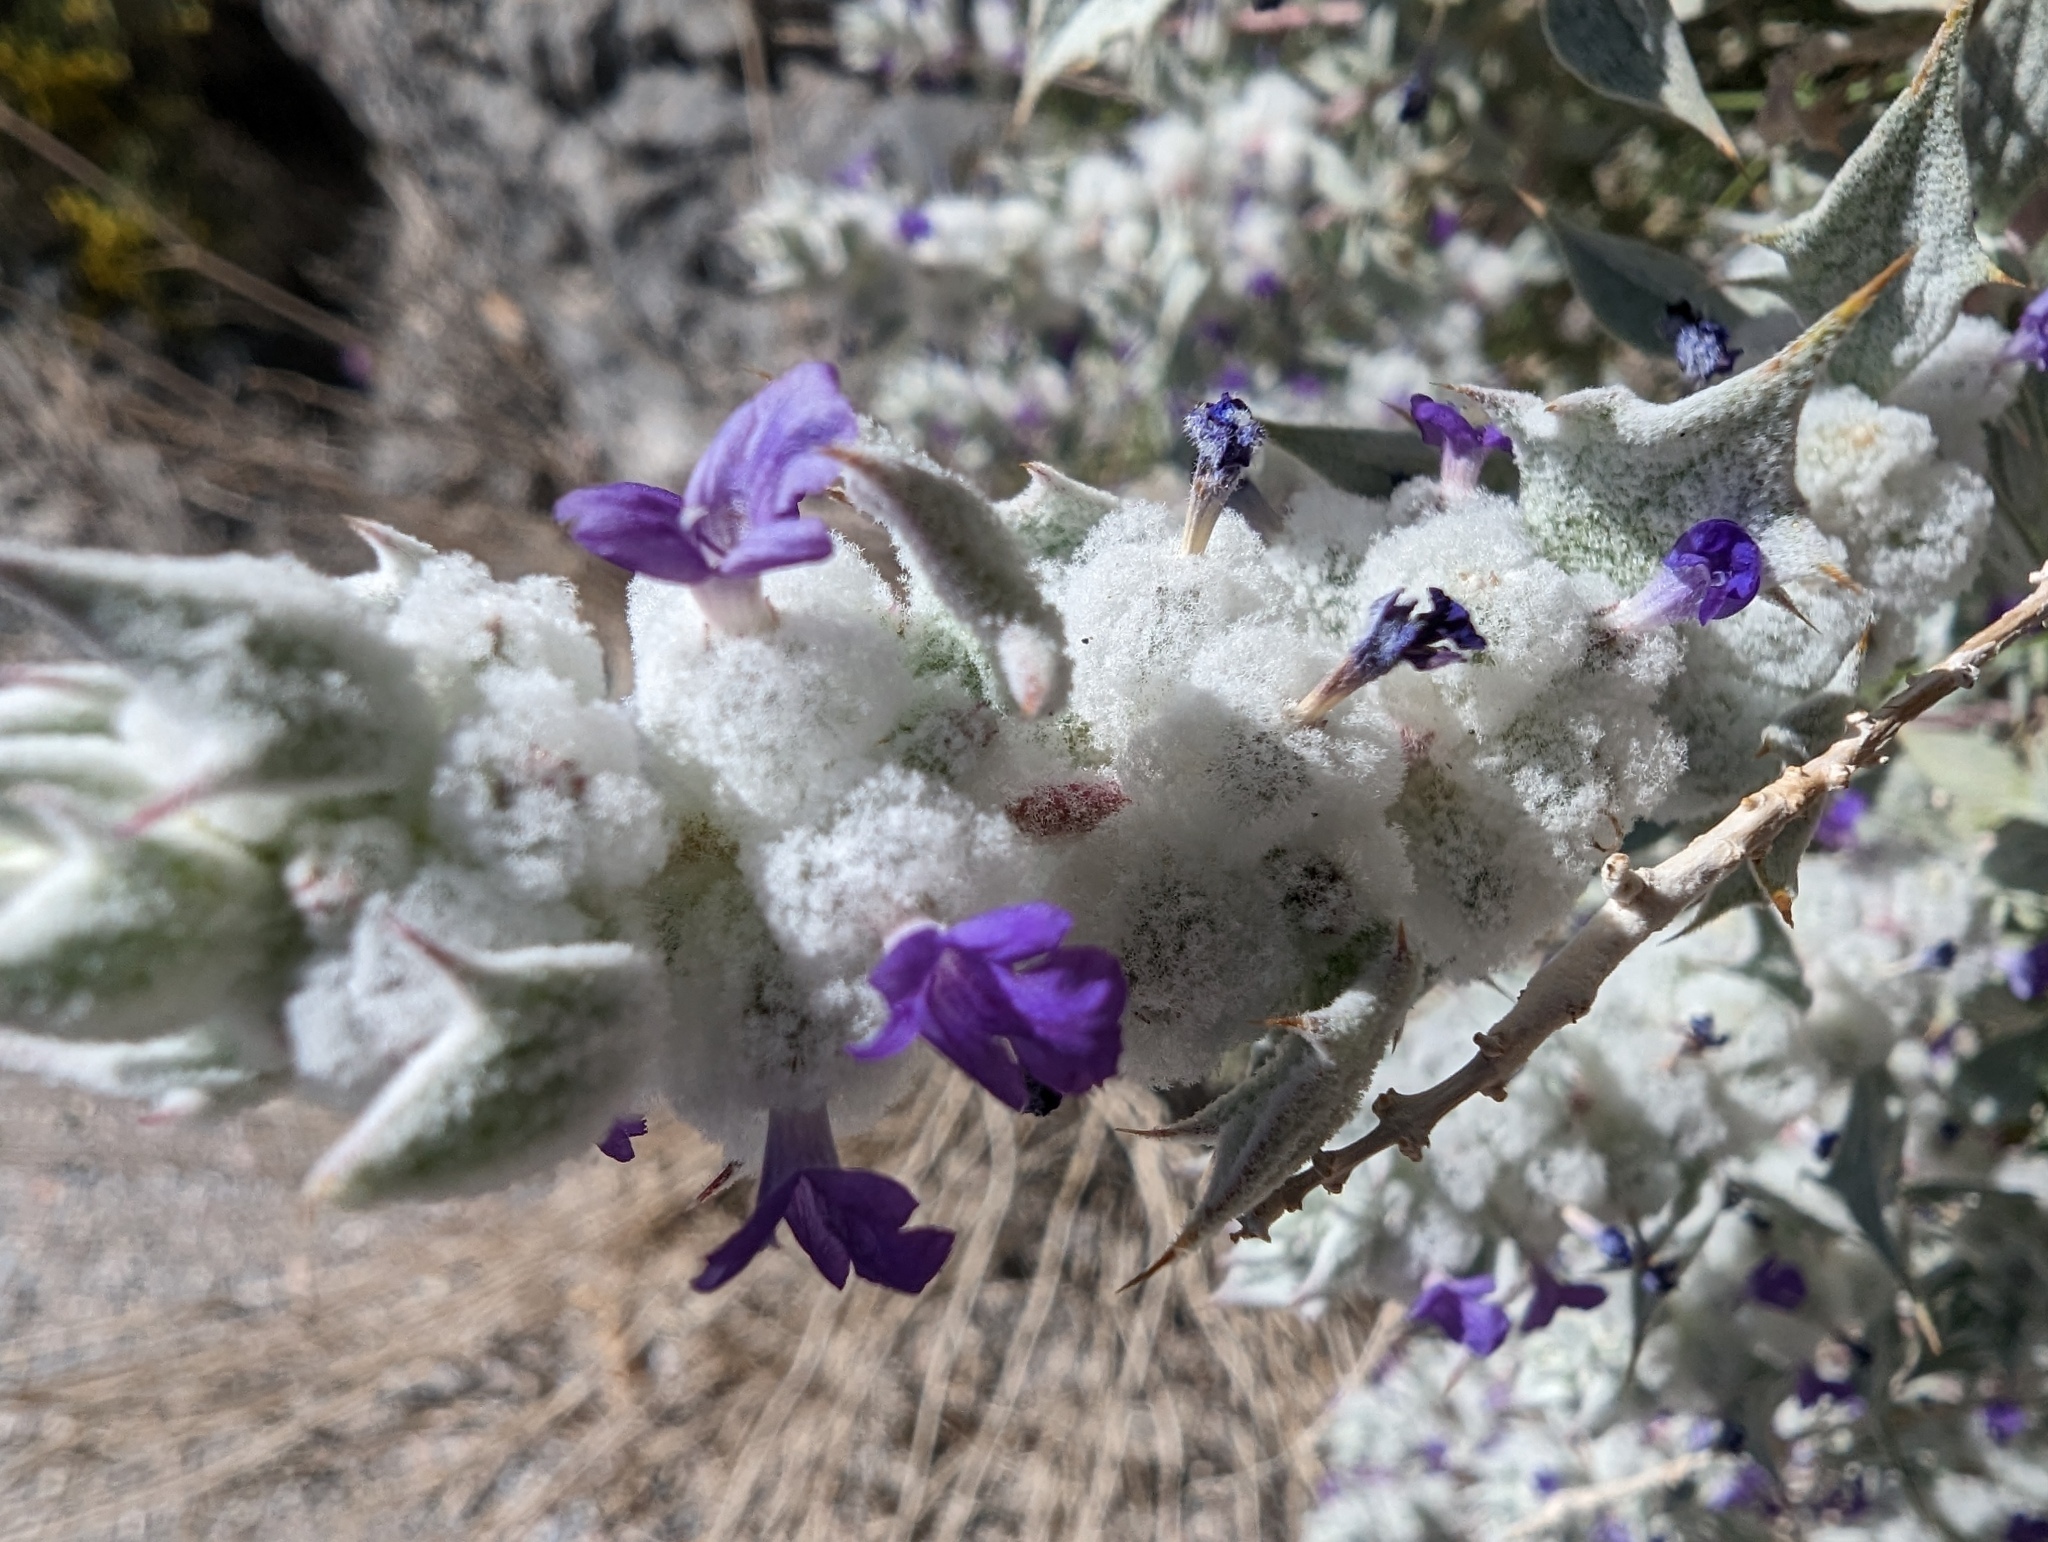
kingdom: Plantae
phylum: Tracheophyta
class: Magnoliopsida
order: Lamiales
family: Lamiaceae
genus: Salvia
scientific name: Salvia funerea
